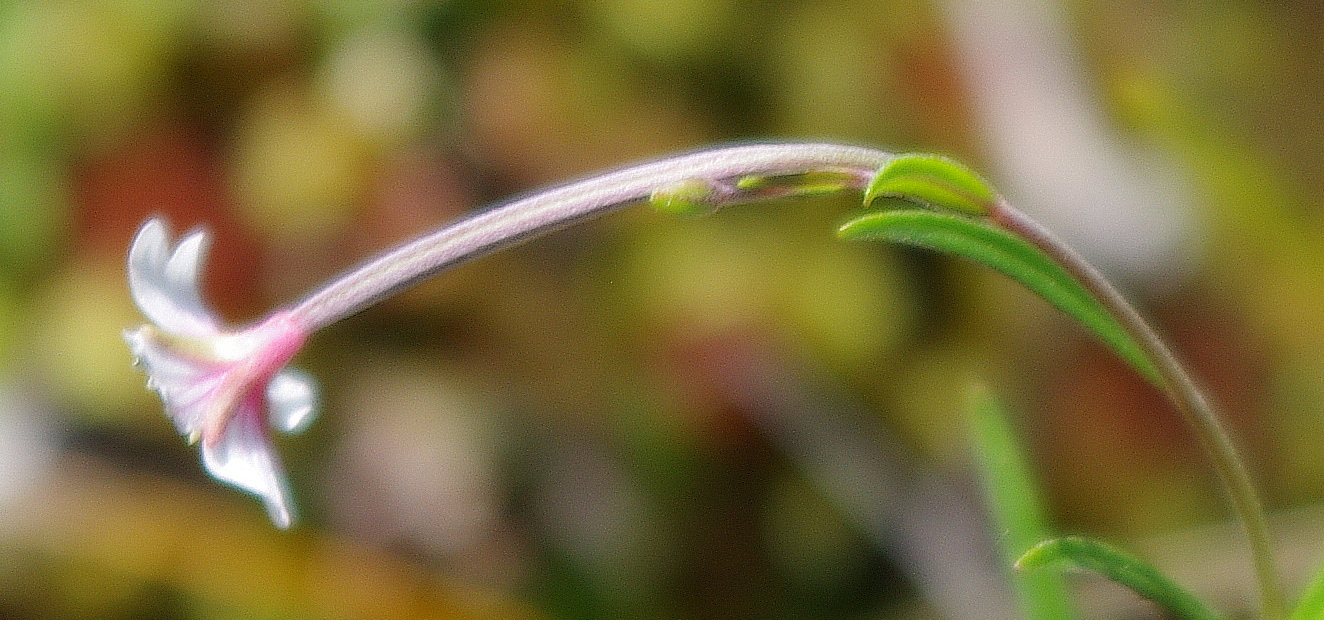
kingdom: Plantae
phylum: Tracheophyta
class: Magnoliopsida
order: Myrtales
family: Onagraceae
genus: Epilobium
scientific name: Epilobium palustre
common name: Marsh willowherb
